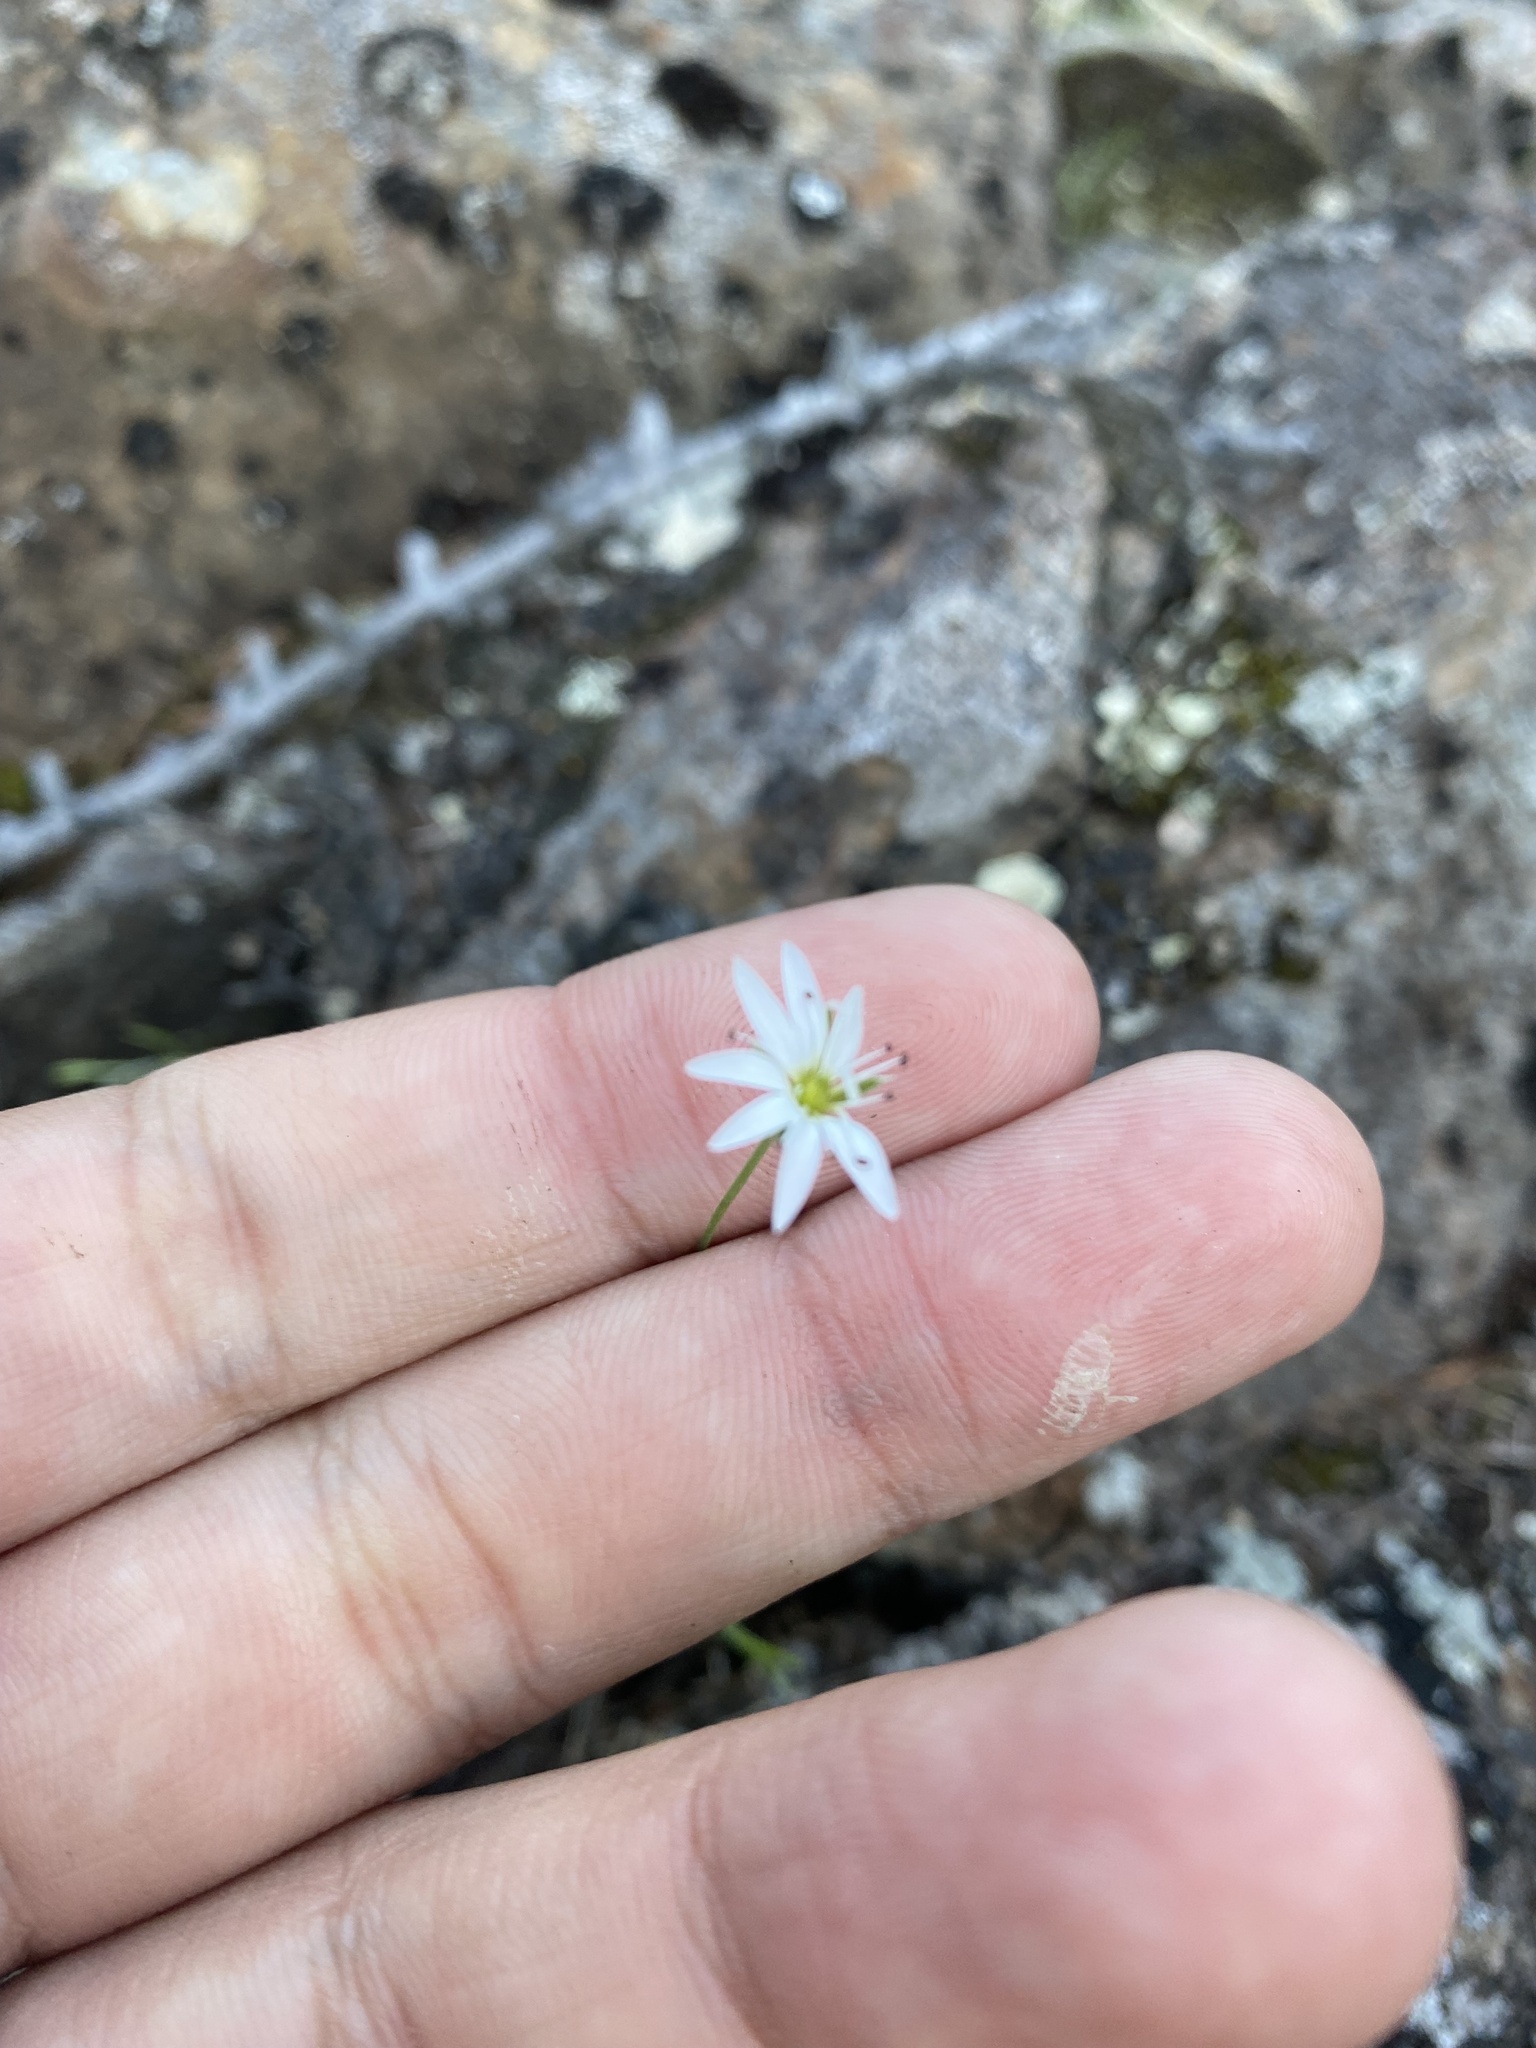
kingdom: Plantae
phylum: Tracheophyta
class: Magnoliopsida
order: Caryophyllales
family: Caryophyllaceae
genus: Stellaria
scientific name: Stellaria edwardsii
